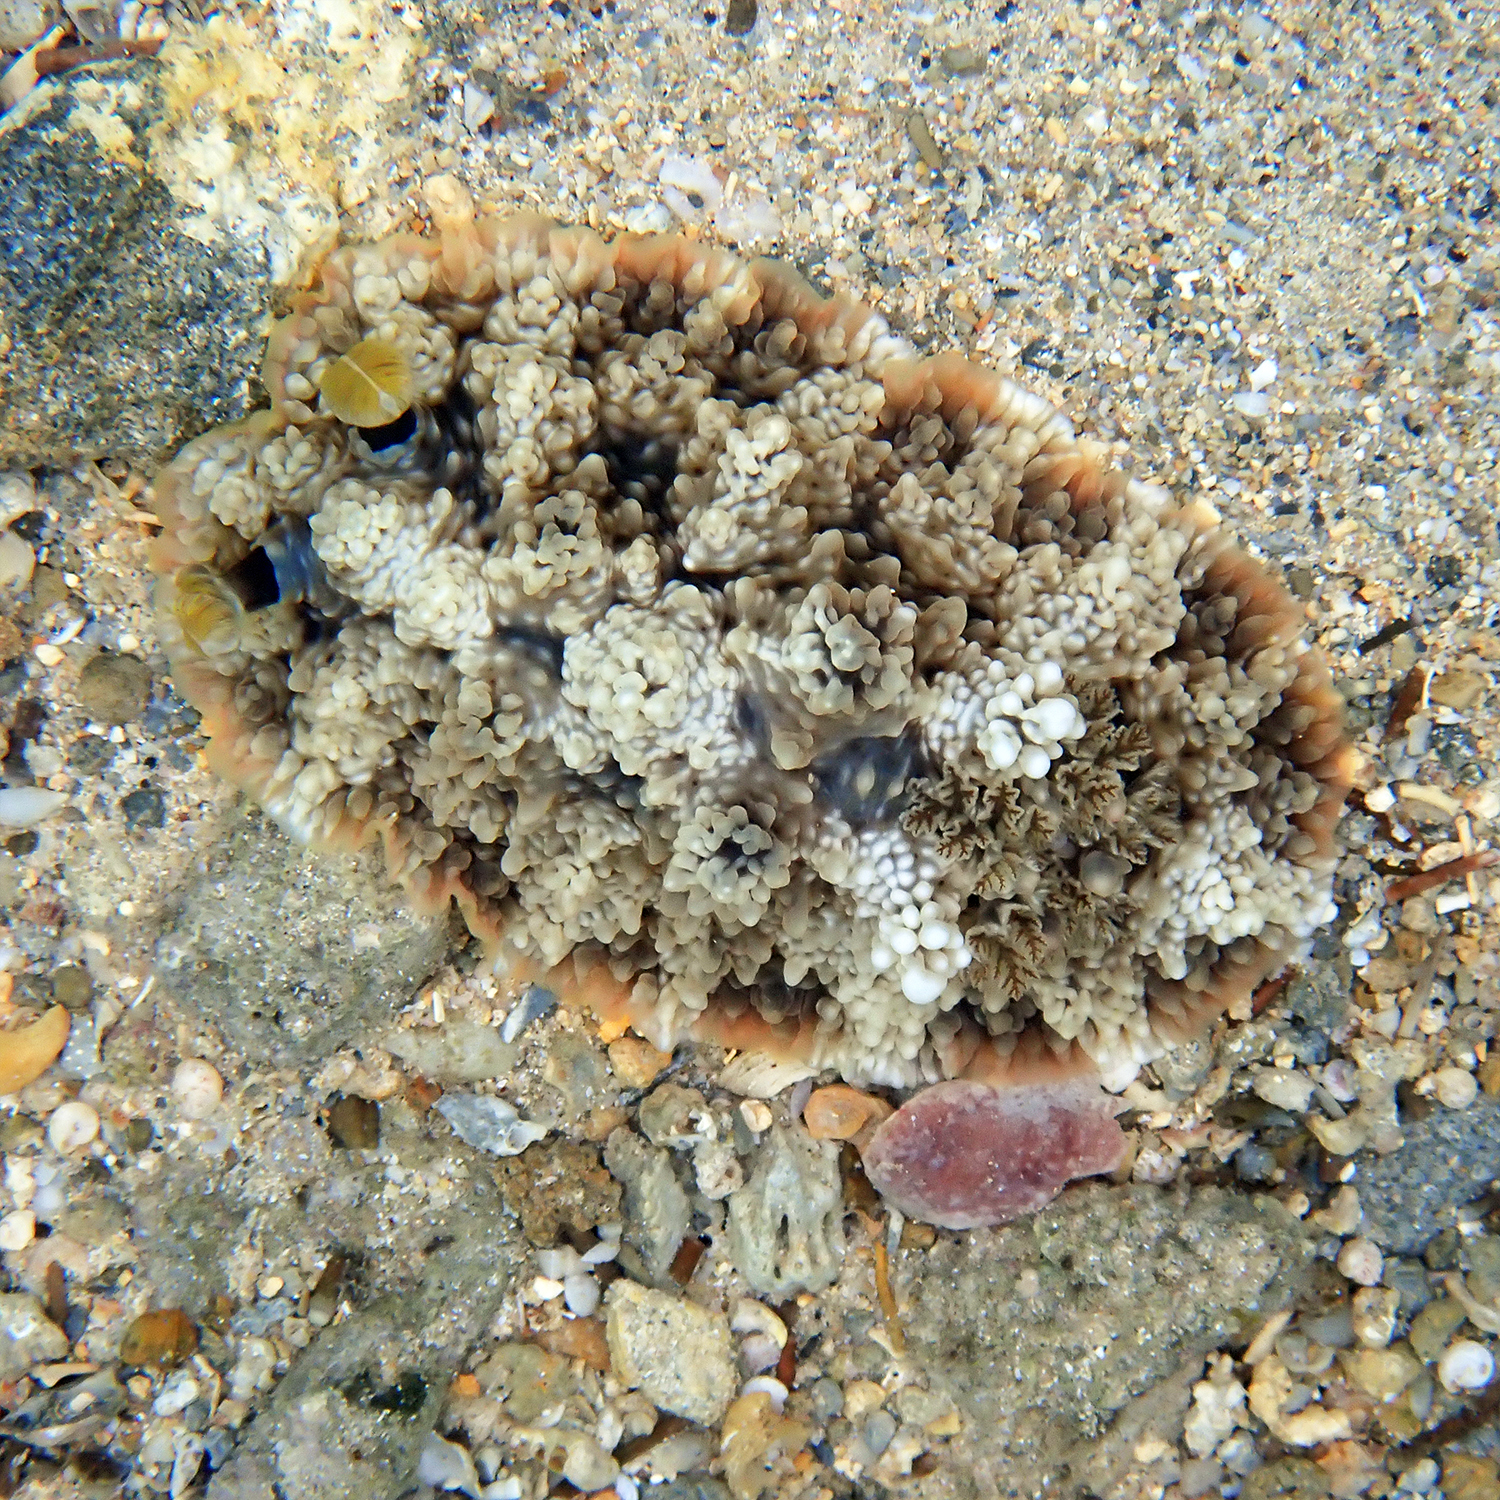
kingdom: Animalia
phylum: Mollusca
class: Gastropoda
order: Nudibranchia
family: Dendrodorididae
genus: Dendrodoris
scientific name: Dendrodoris tuberculosa
